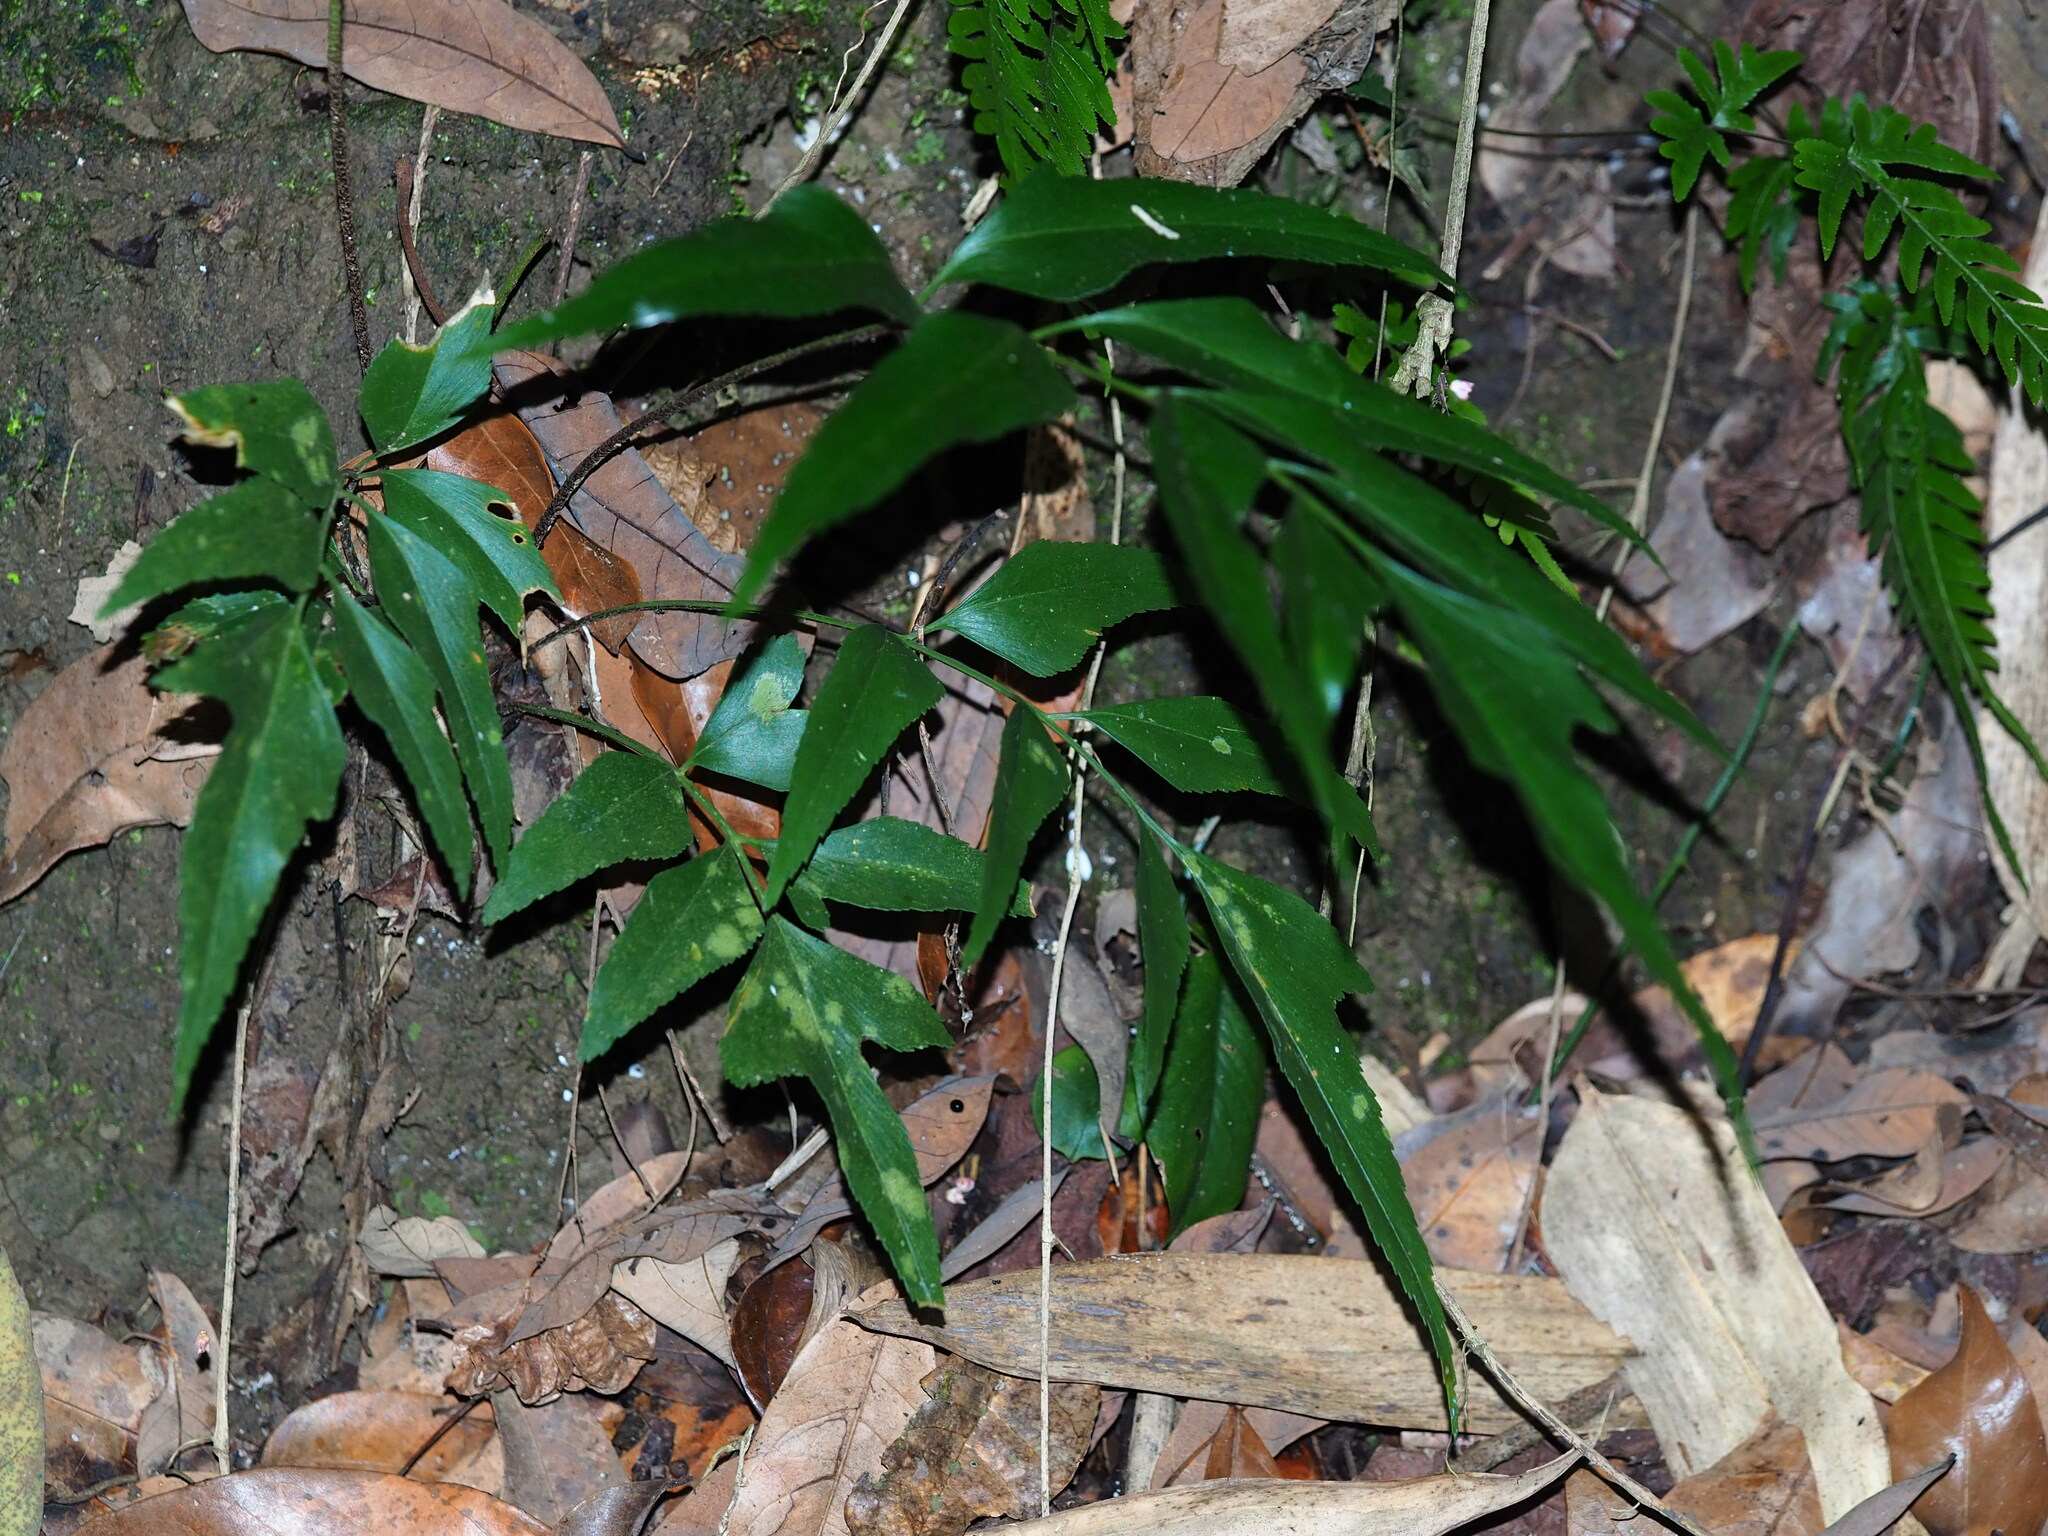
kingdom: Plantae
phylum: Tracheophyta
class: Polypodiopsida
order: Polypodiales
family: Aspleniaceae
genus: Asplenium
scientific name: Asplenium falcatum
